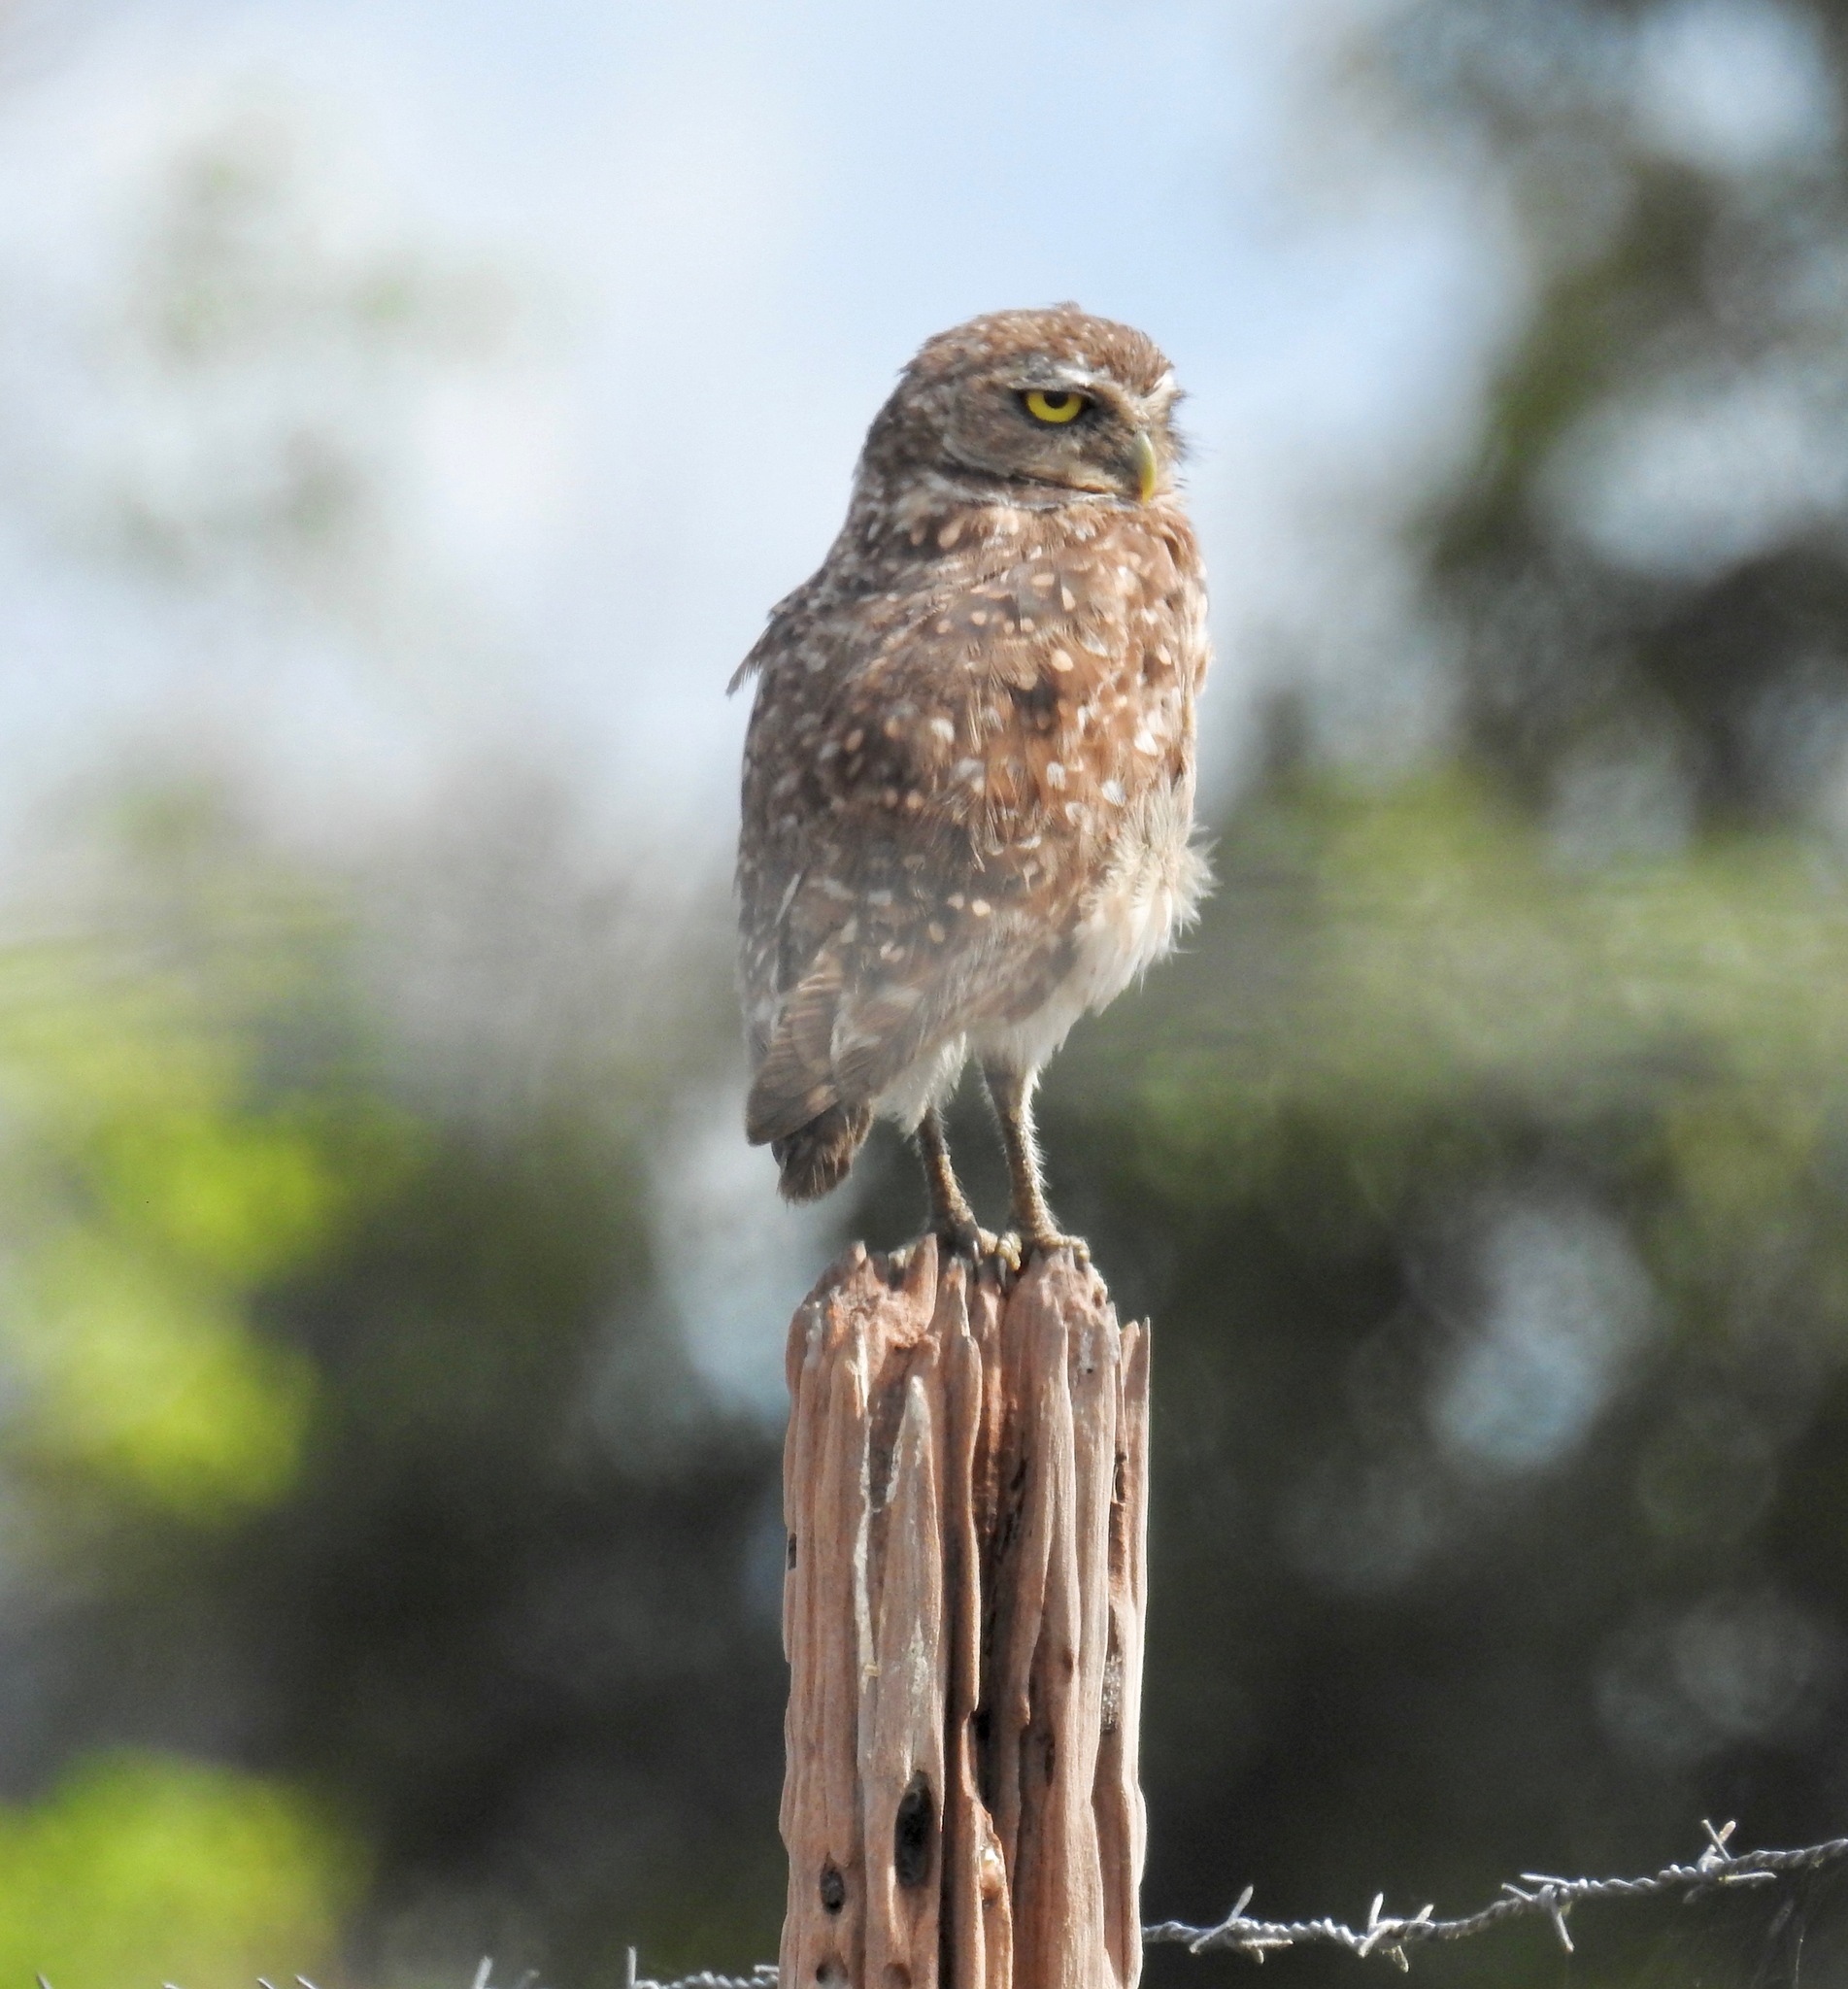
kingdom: Animalia
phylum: Chordata
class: Aves
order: Strigiformes
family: Strigidae
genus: Athene
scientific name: Athene cunicularia
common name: Burrowing owl
